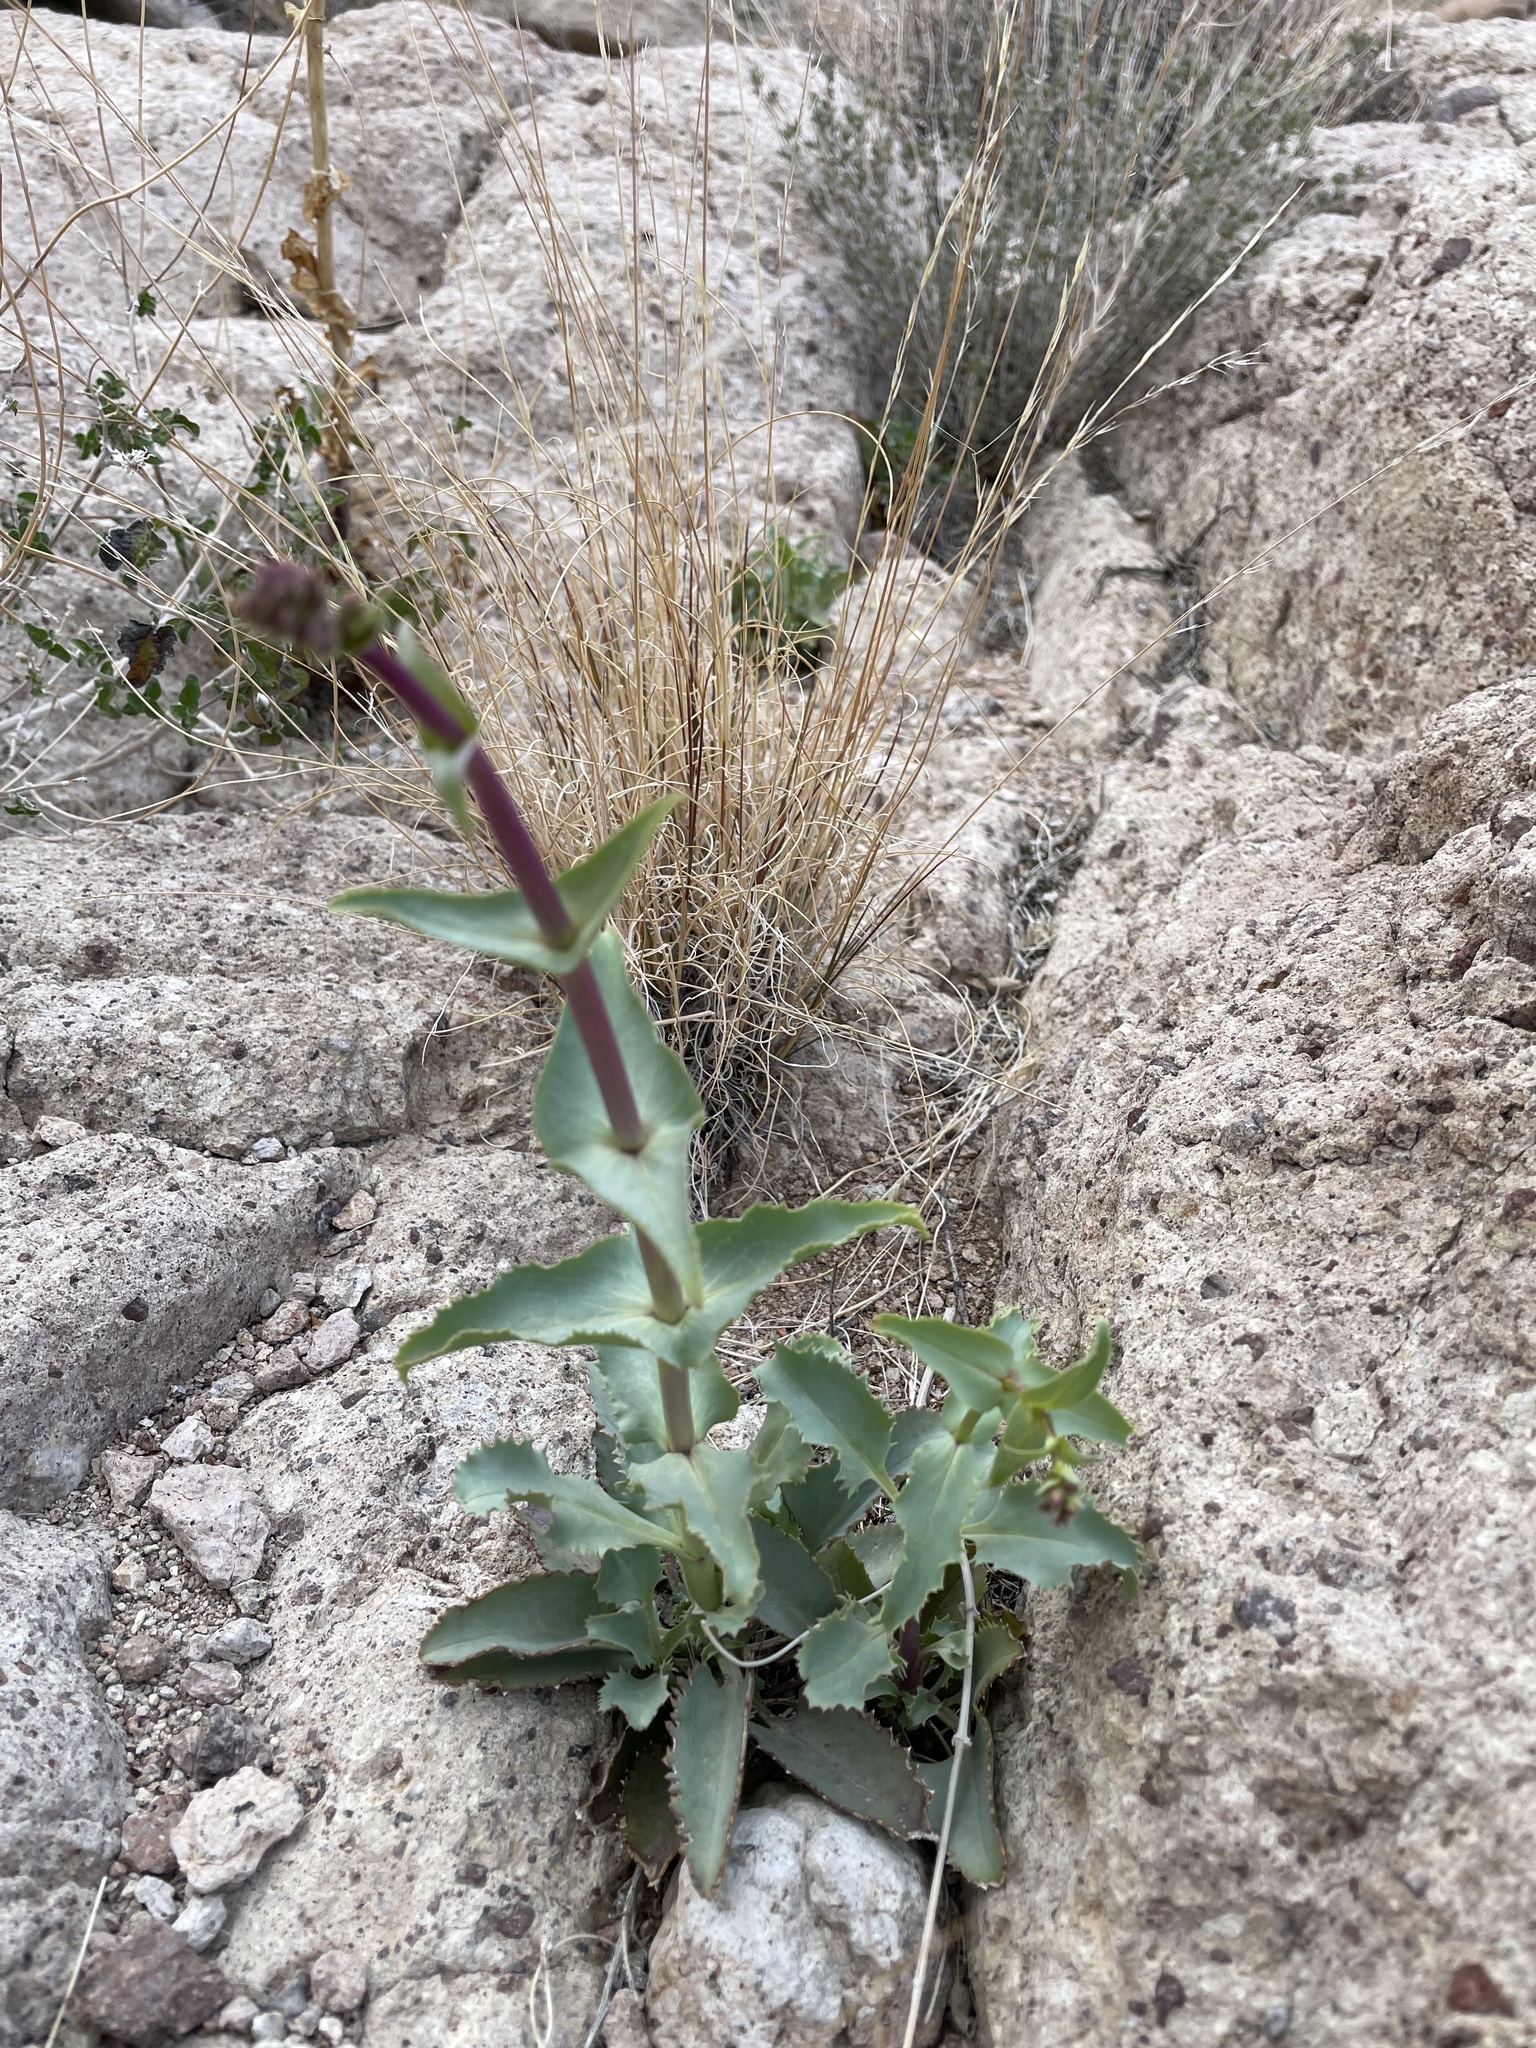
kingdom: Plantae
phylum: Tracheophyta
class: Magnoliopsida
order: Lamiales
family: Plantaginaceae
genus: Penstemon
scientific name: Penstemon bicolor
